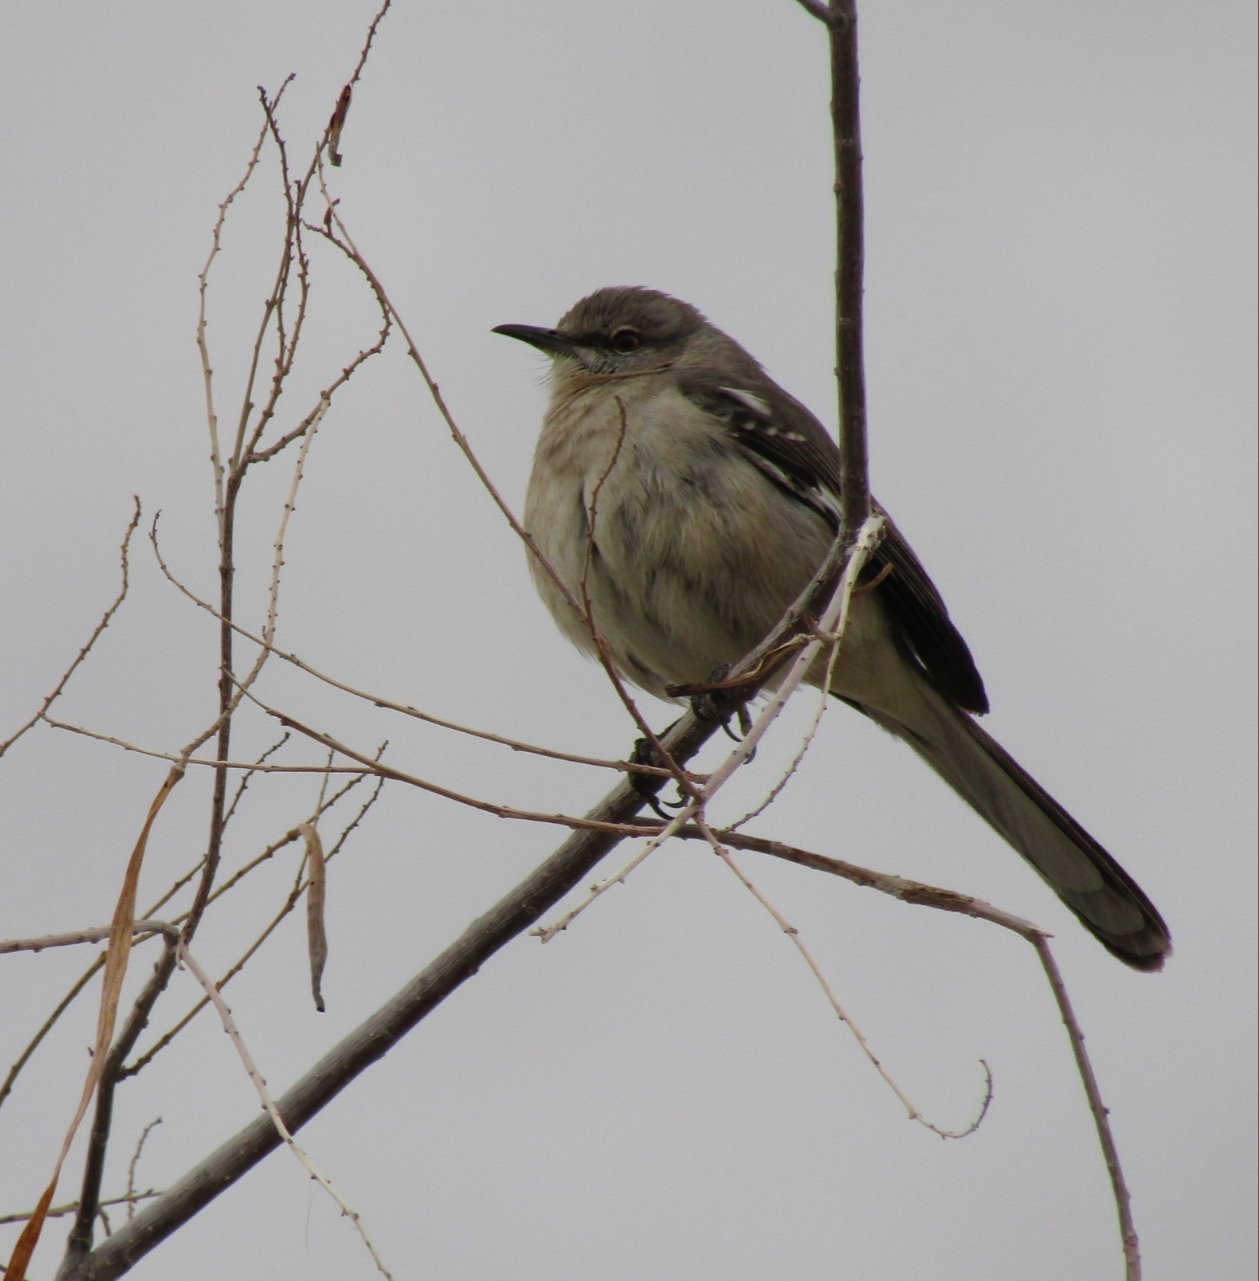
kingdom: Animalia
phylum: Chordata
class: Aves
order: Passeriformes
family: Mimidae
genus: Mimus
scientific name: Mimus polyglottos
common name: Northern mockingbird
